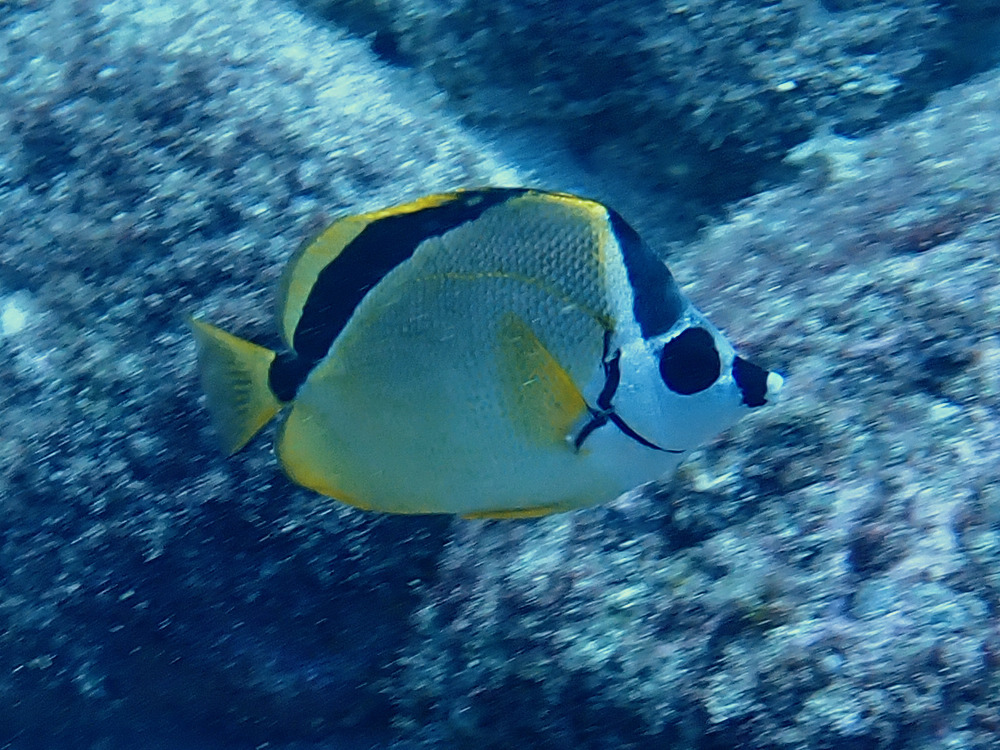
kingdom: Animalia
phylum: Chordata
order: Perciformes
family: Chaetodontidae
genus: Johnrandallia
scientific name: Johnrandallia nigrirostris
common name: Barberfish
